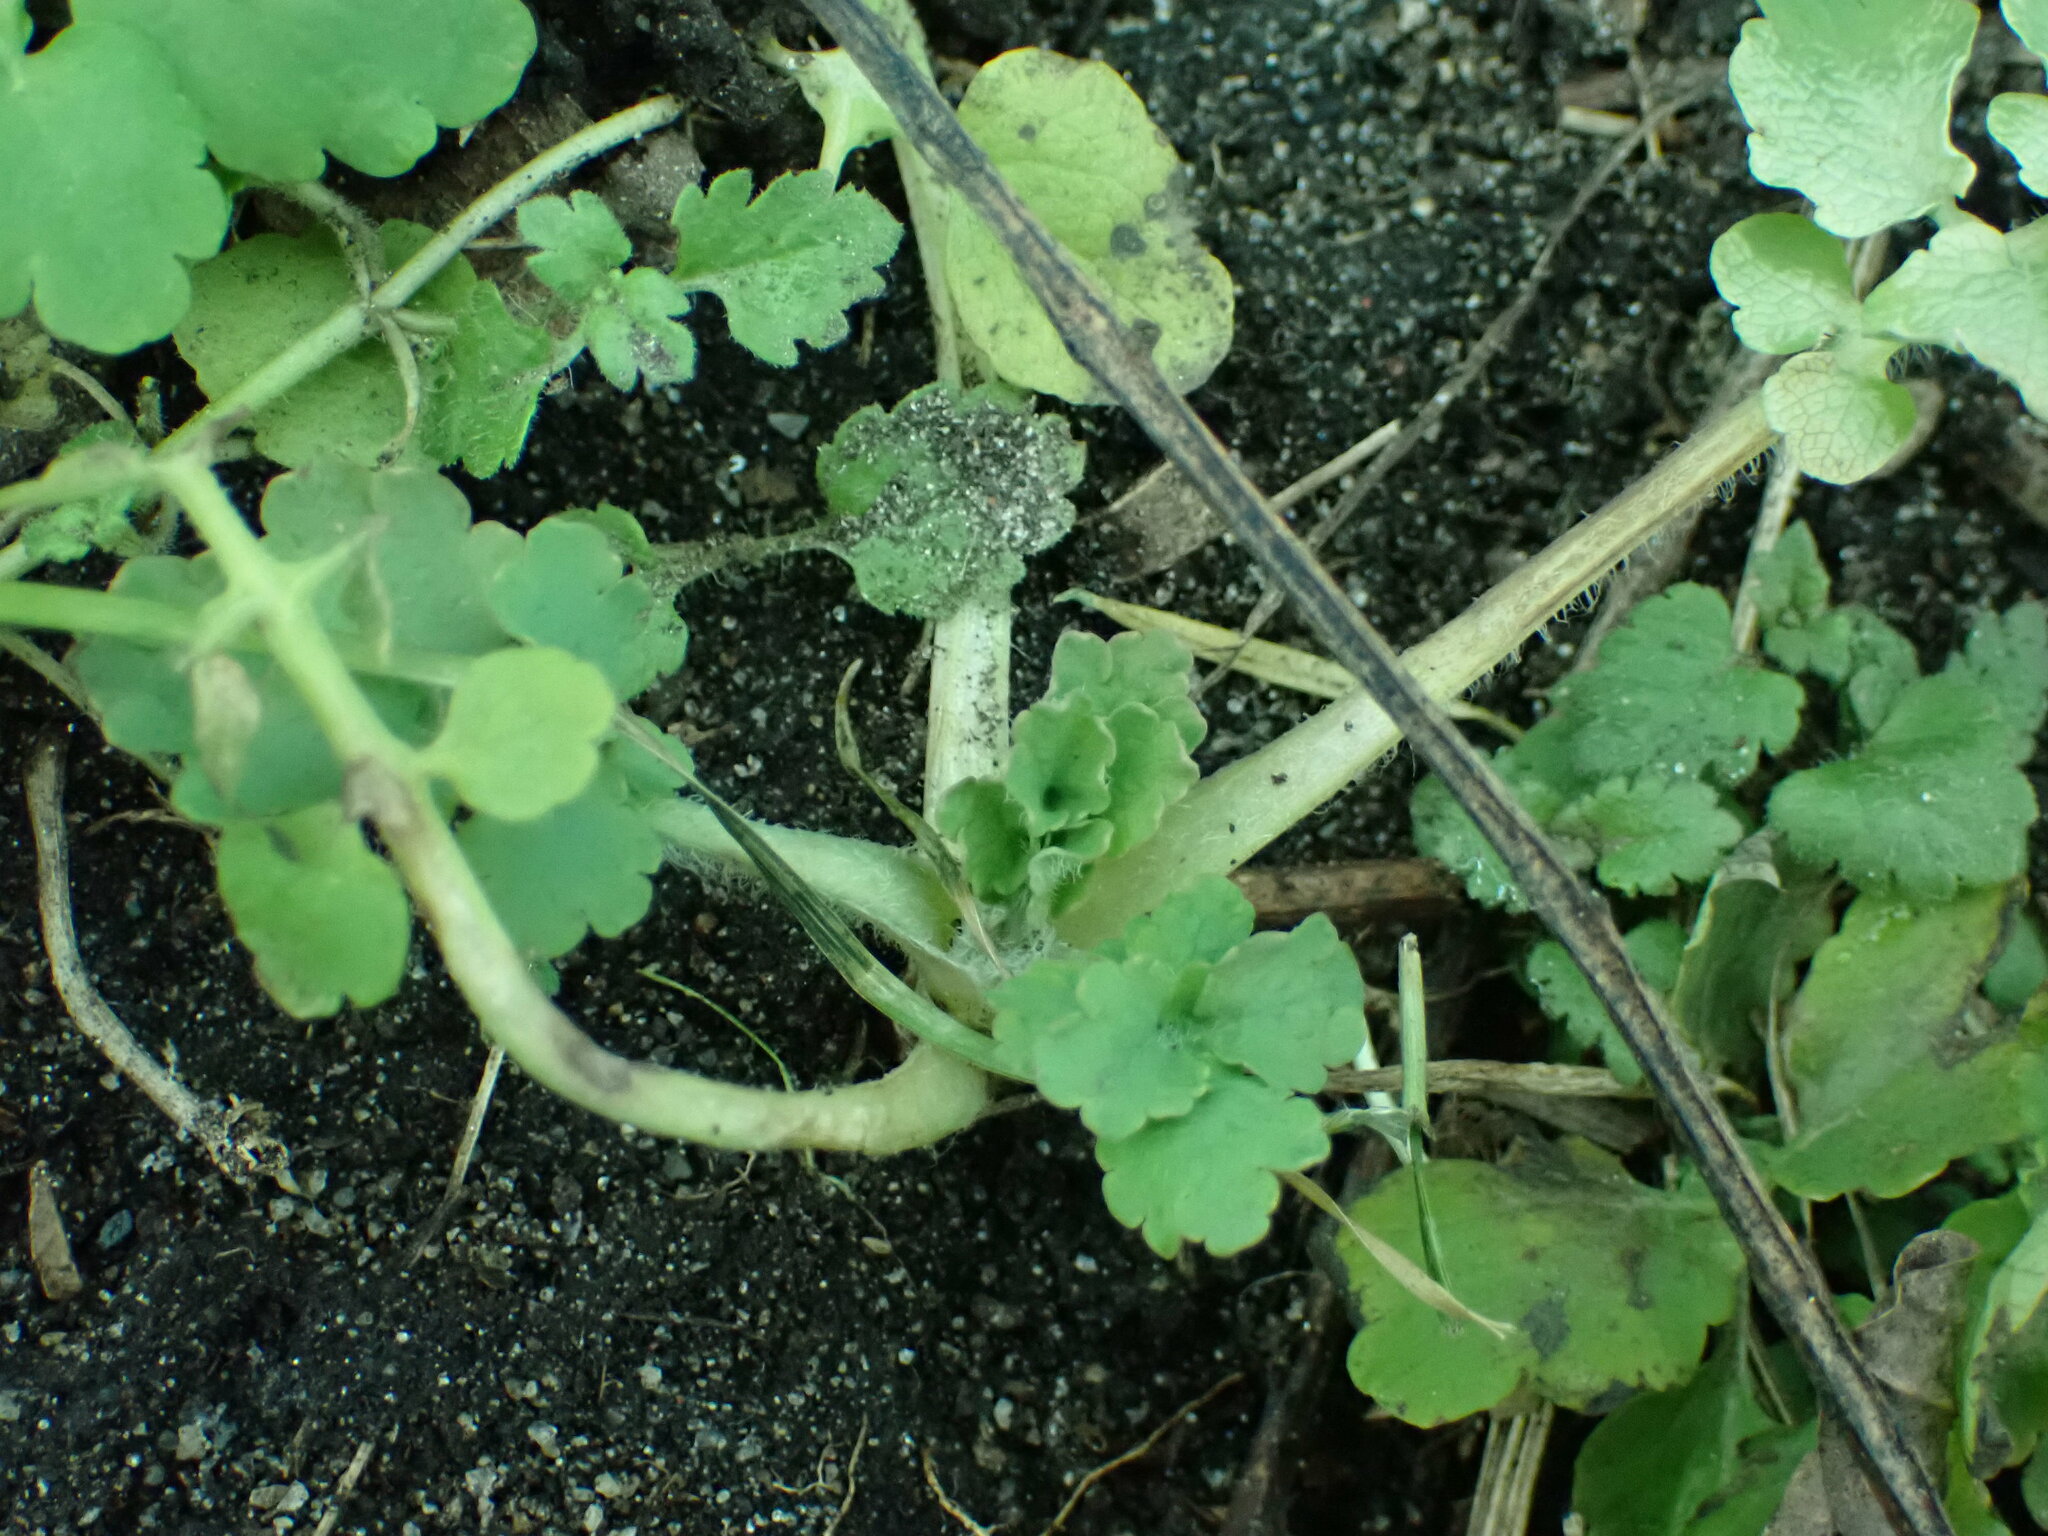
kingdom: Plantae
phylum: Tracheophyta
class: Magnoliopsida
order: Ranunculales
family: Papaveraceae
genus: Chelidonium
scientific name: Chelidonium majus
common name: Greater celandine
